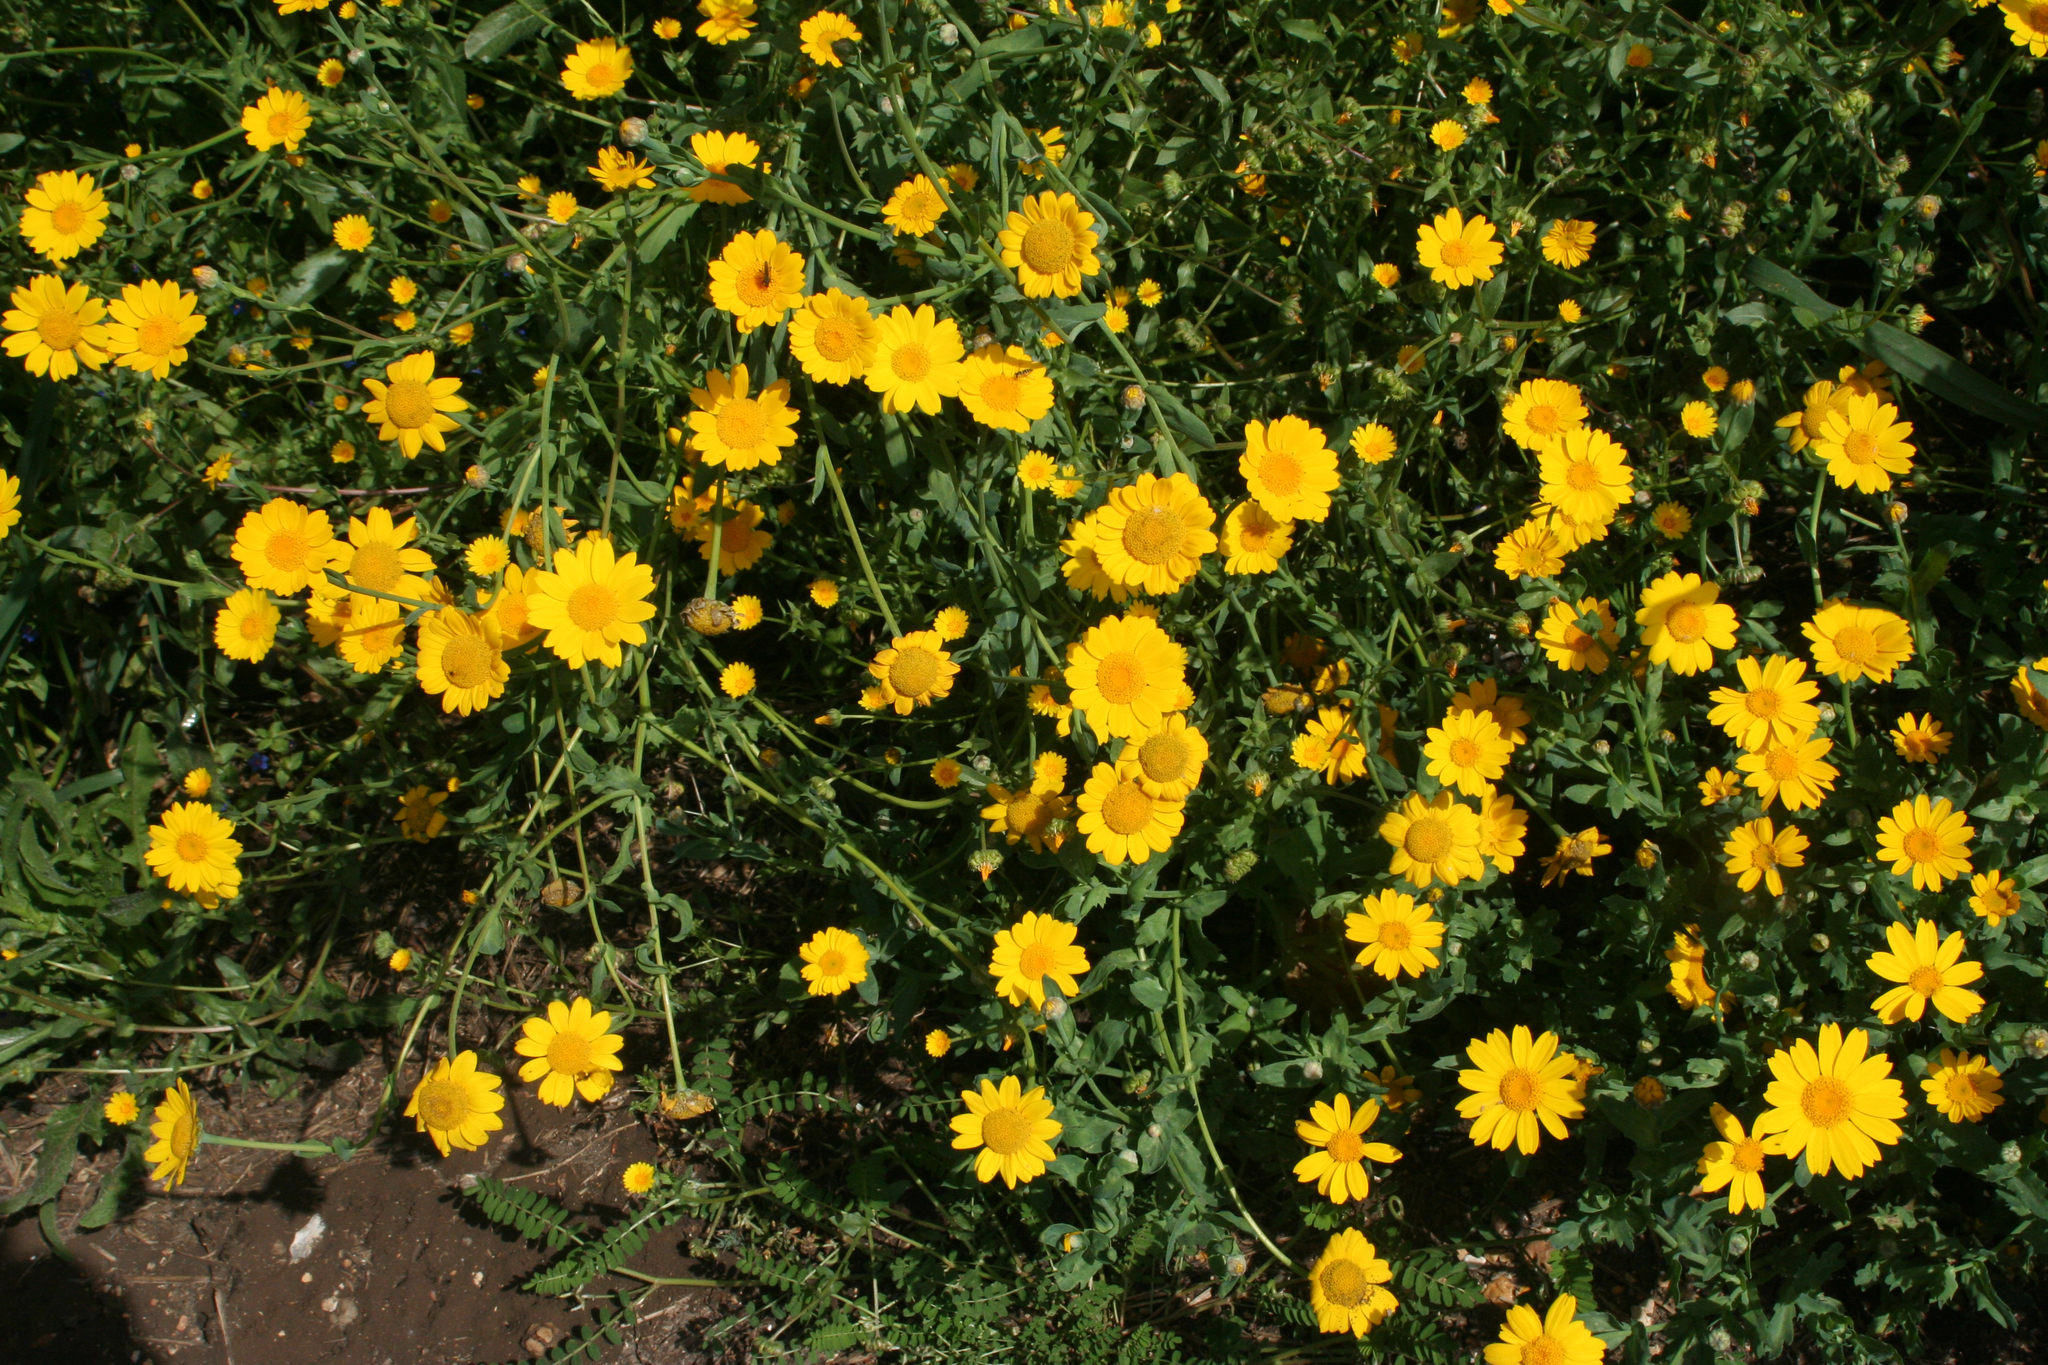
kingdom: Plantae
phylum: Tracheophyta
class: Magnoliopsida
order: Asterales
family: Asteraceae
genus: Glebionis
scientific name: Glebionis coronaria
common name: Crowndaisy
